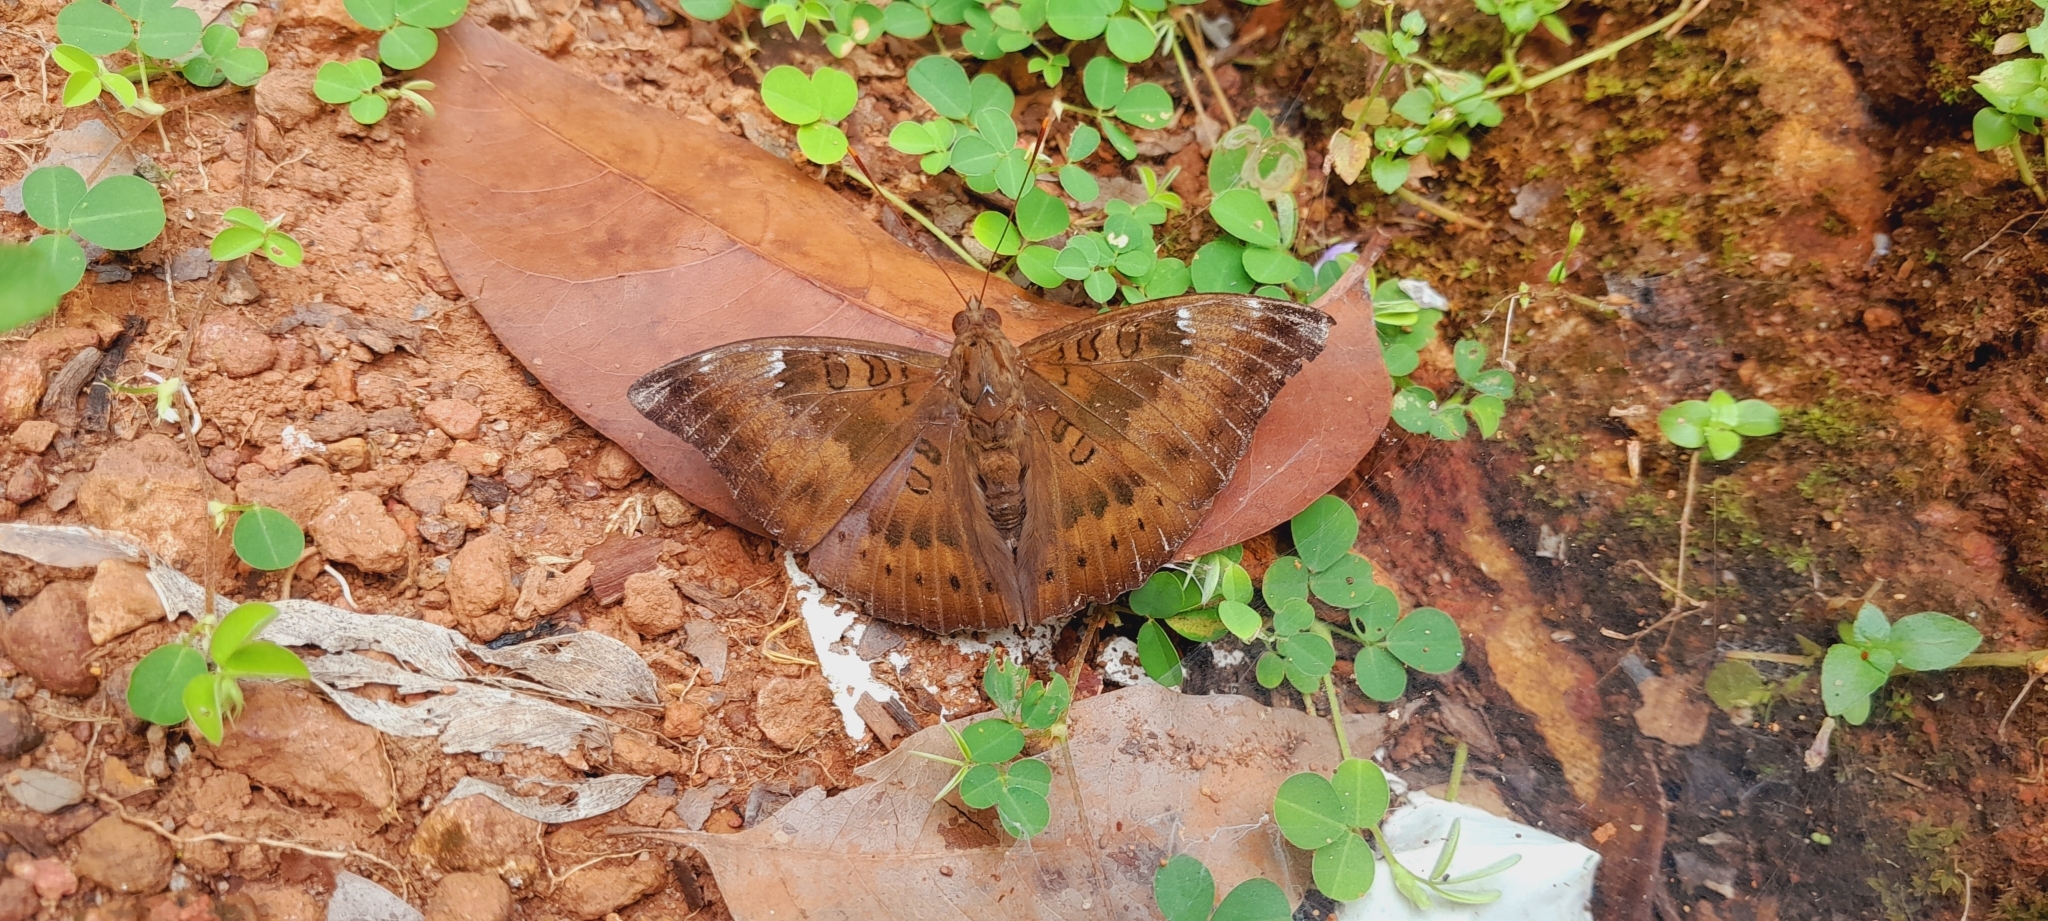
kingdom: Animalia
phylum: Arthropoda
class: Insecta
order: Lepidoptera
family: Nymphalidae
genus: Euthalia
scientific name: Euthalia aconthea
